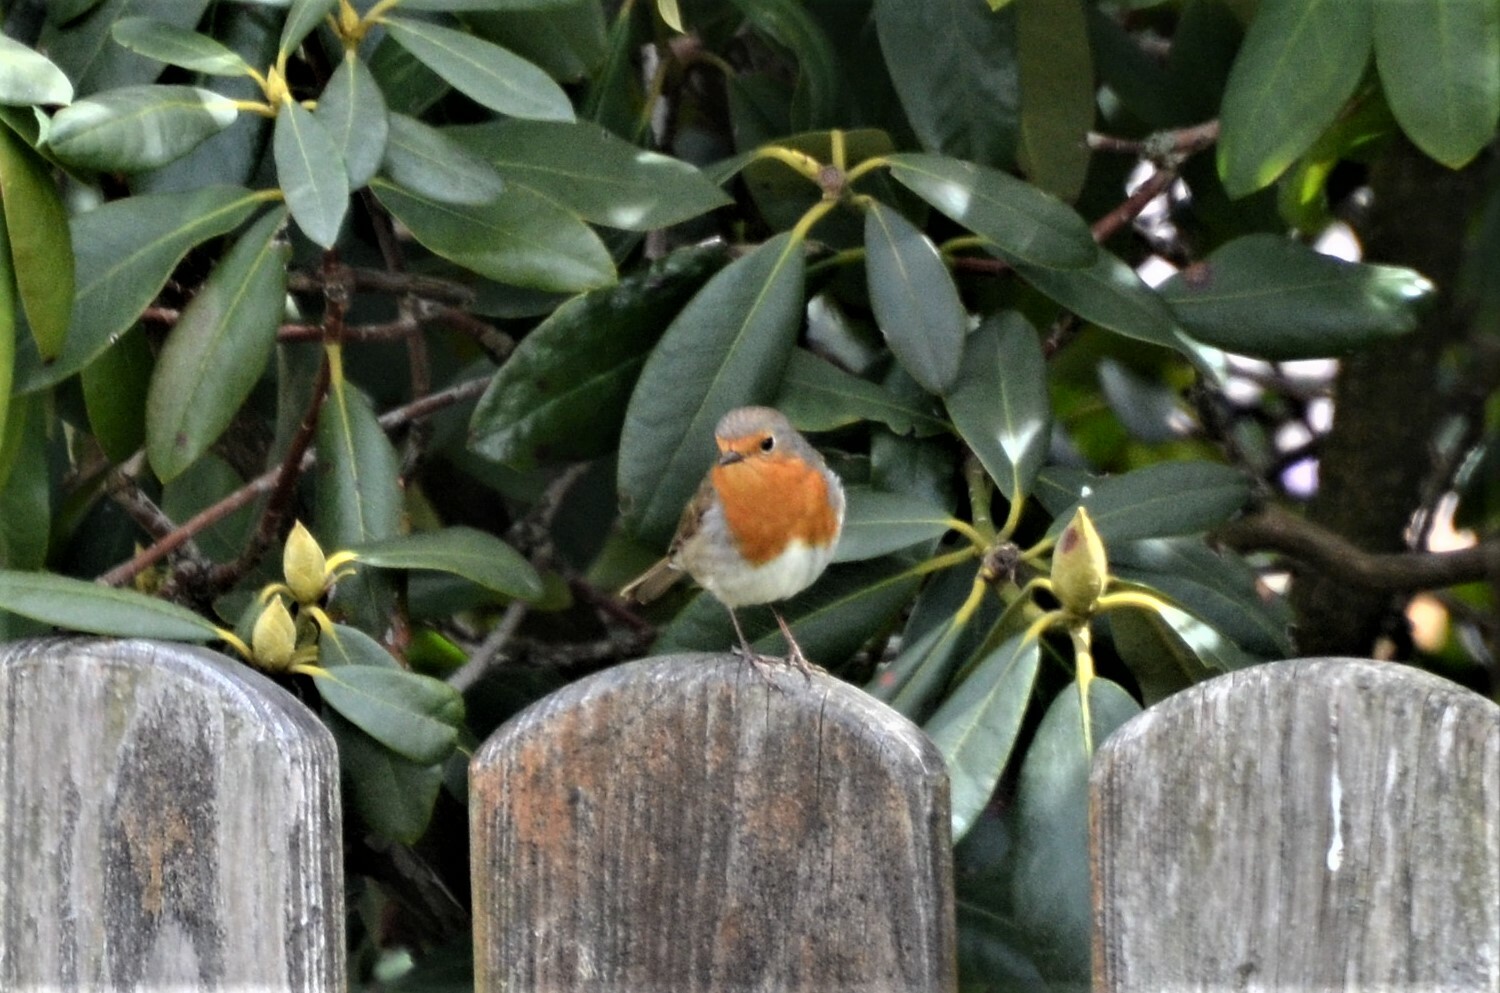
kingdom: Animalia
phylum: Chordata
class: Aves
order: Passeriformes
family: Muscicapidae
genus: Erithacus
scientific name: Erithacus rubecula
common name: European robin
